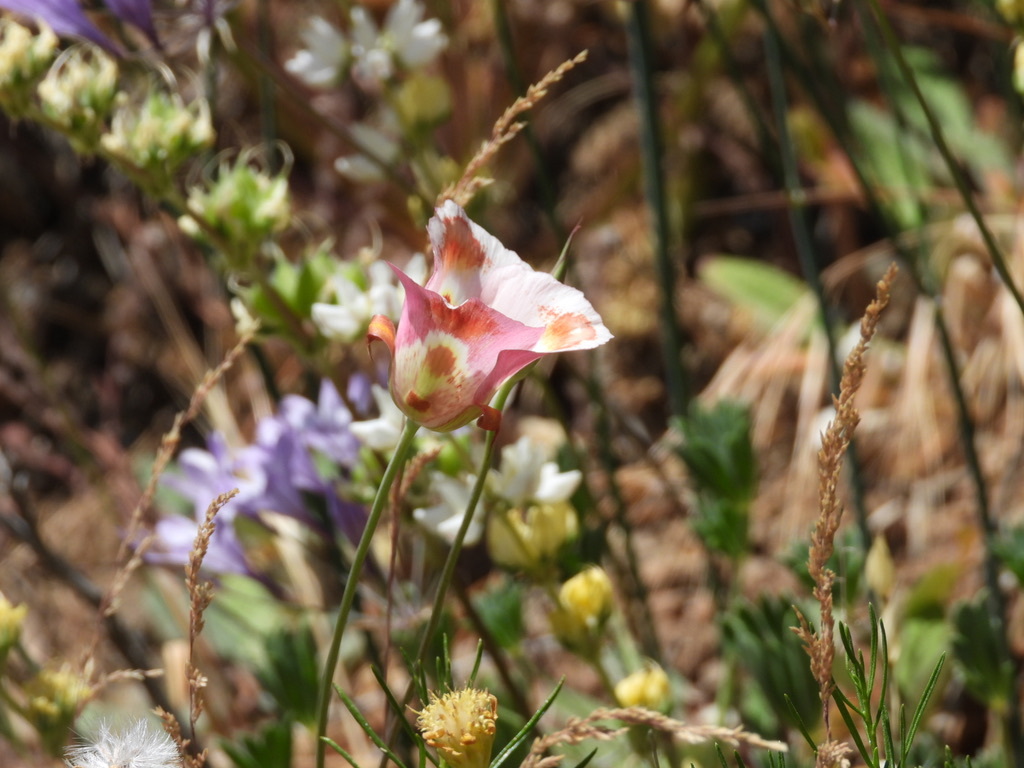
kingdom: Plantae
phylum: Tracheophyta
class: Liliopsida
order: Liliales
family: Liliaceae
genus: Calochortus
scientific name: Calochortus venustus
